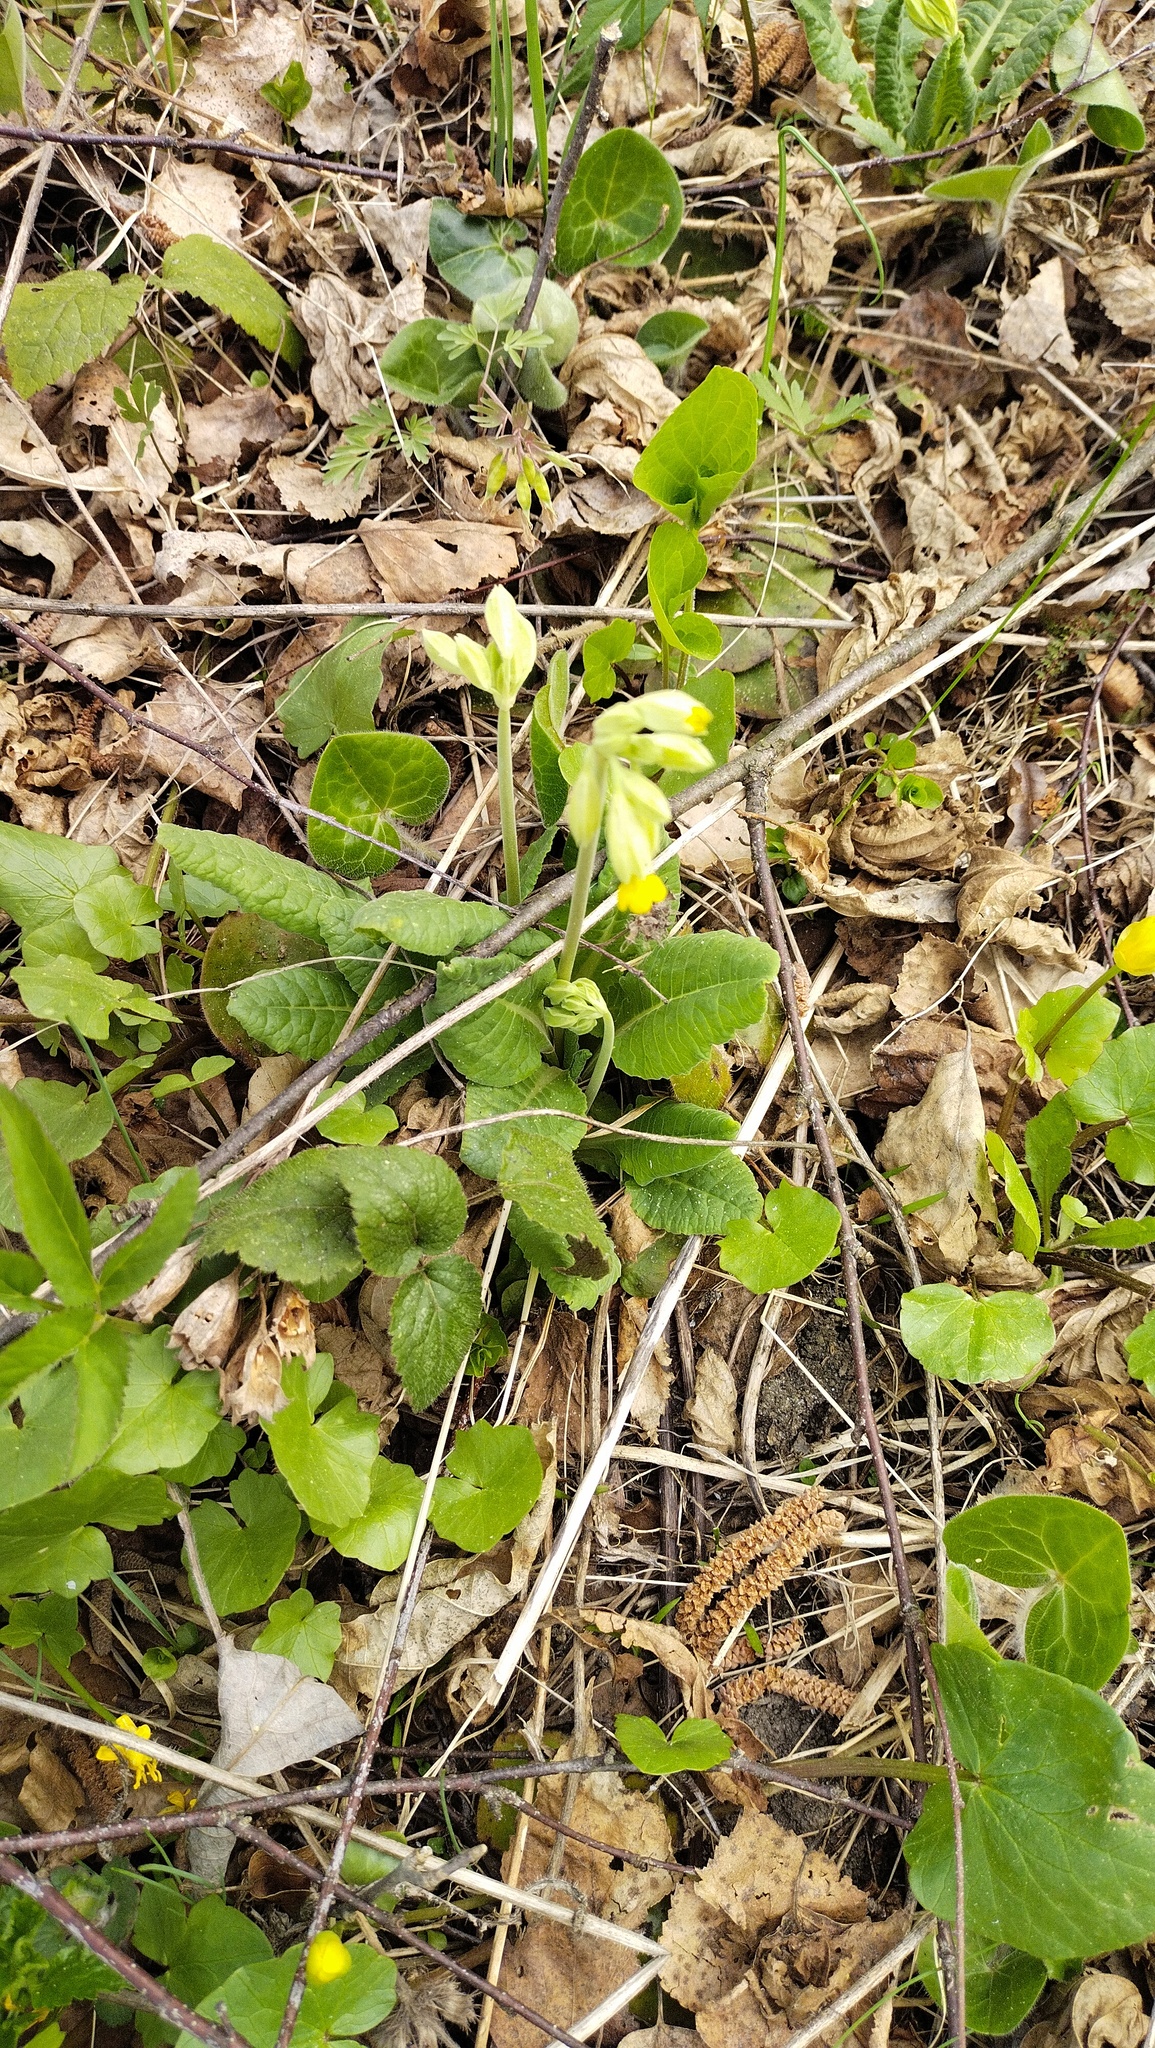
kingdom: Plantae
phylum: Tracheophyta
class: Magnoliopsida
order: Ericales
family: Primulaceae
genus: Primula
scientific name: Primula veris
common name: Cowslip
